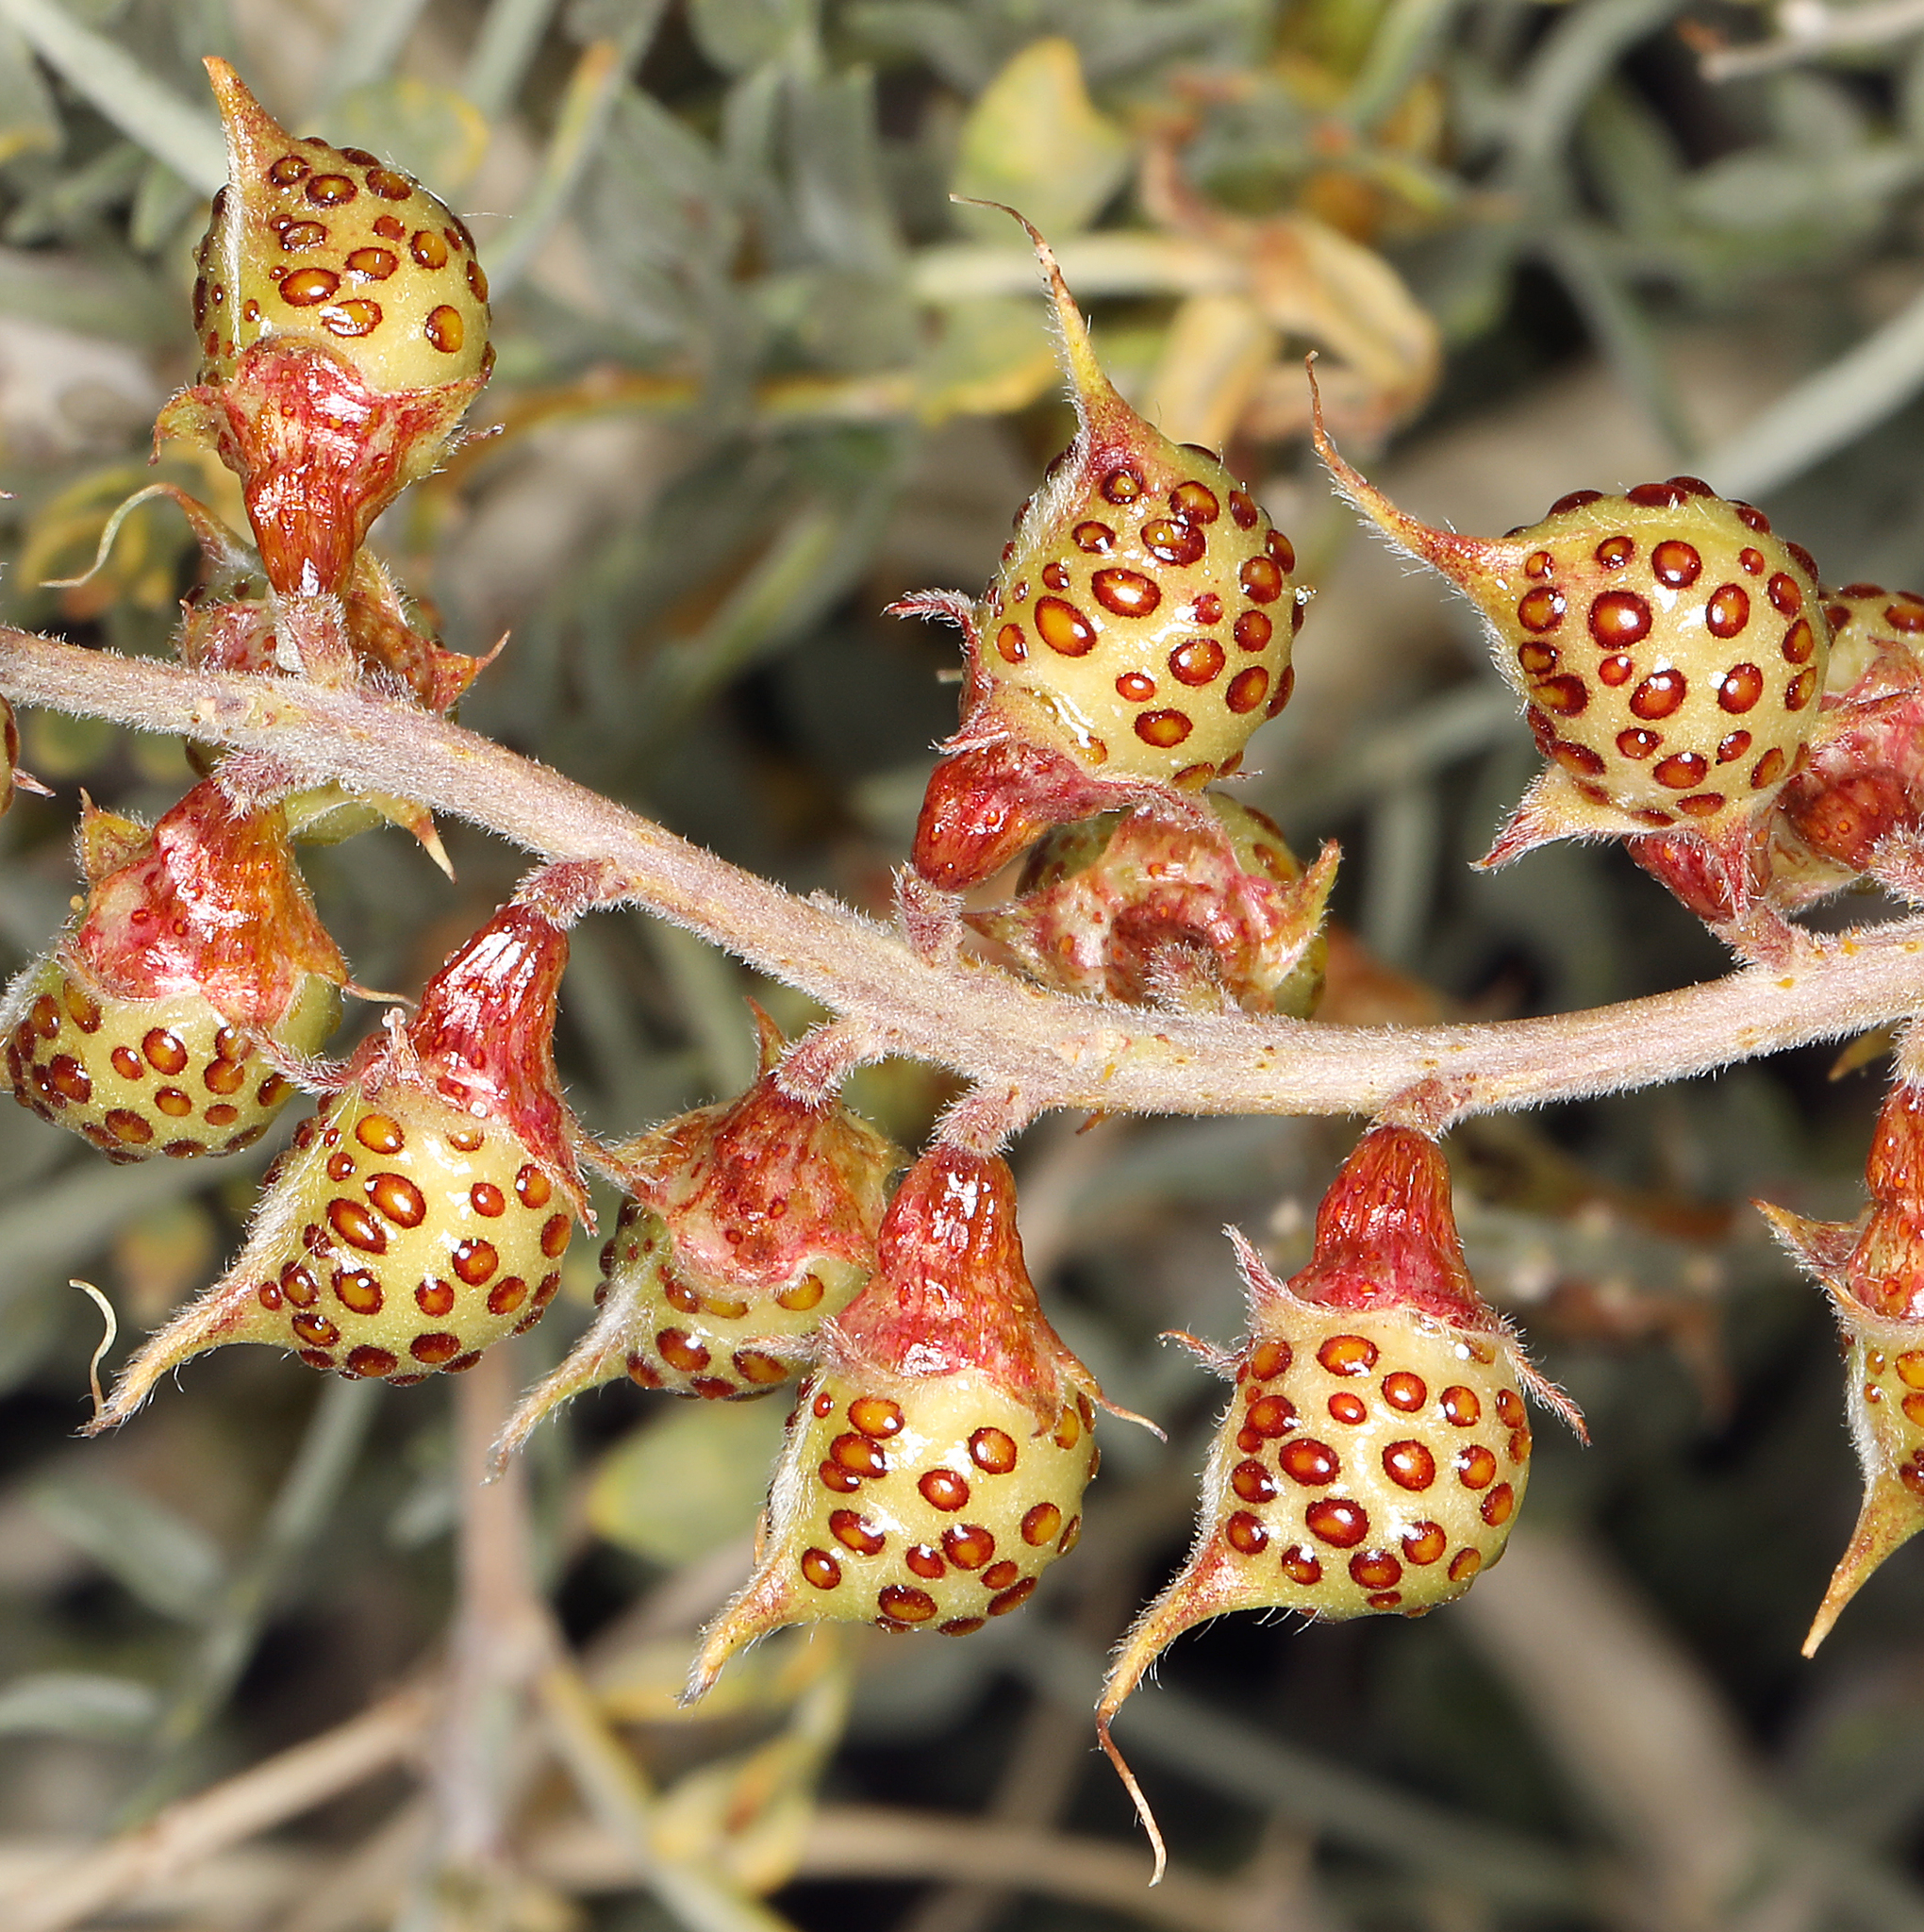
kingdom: Plantae
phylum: Tracheophyta
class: Magnoliopsida
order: Fabales
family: Fabaceae
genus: Psorothamnus
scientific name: Psorothamnus arborescens
